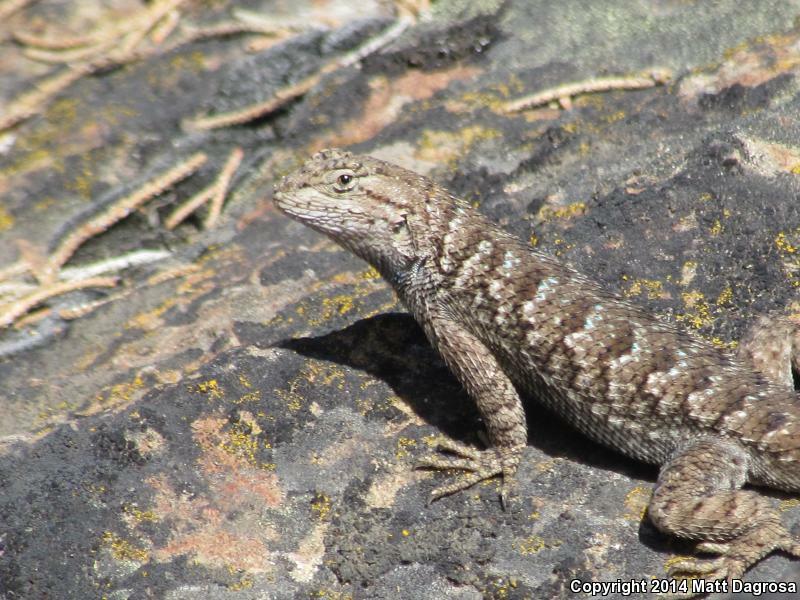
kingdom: Animalia
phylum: Chordata
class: Squamata
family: Phrynosomatidae
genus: Sceloporus
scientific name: Sceloporus occidentalis
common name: Western fence lizard
